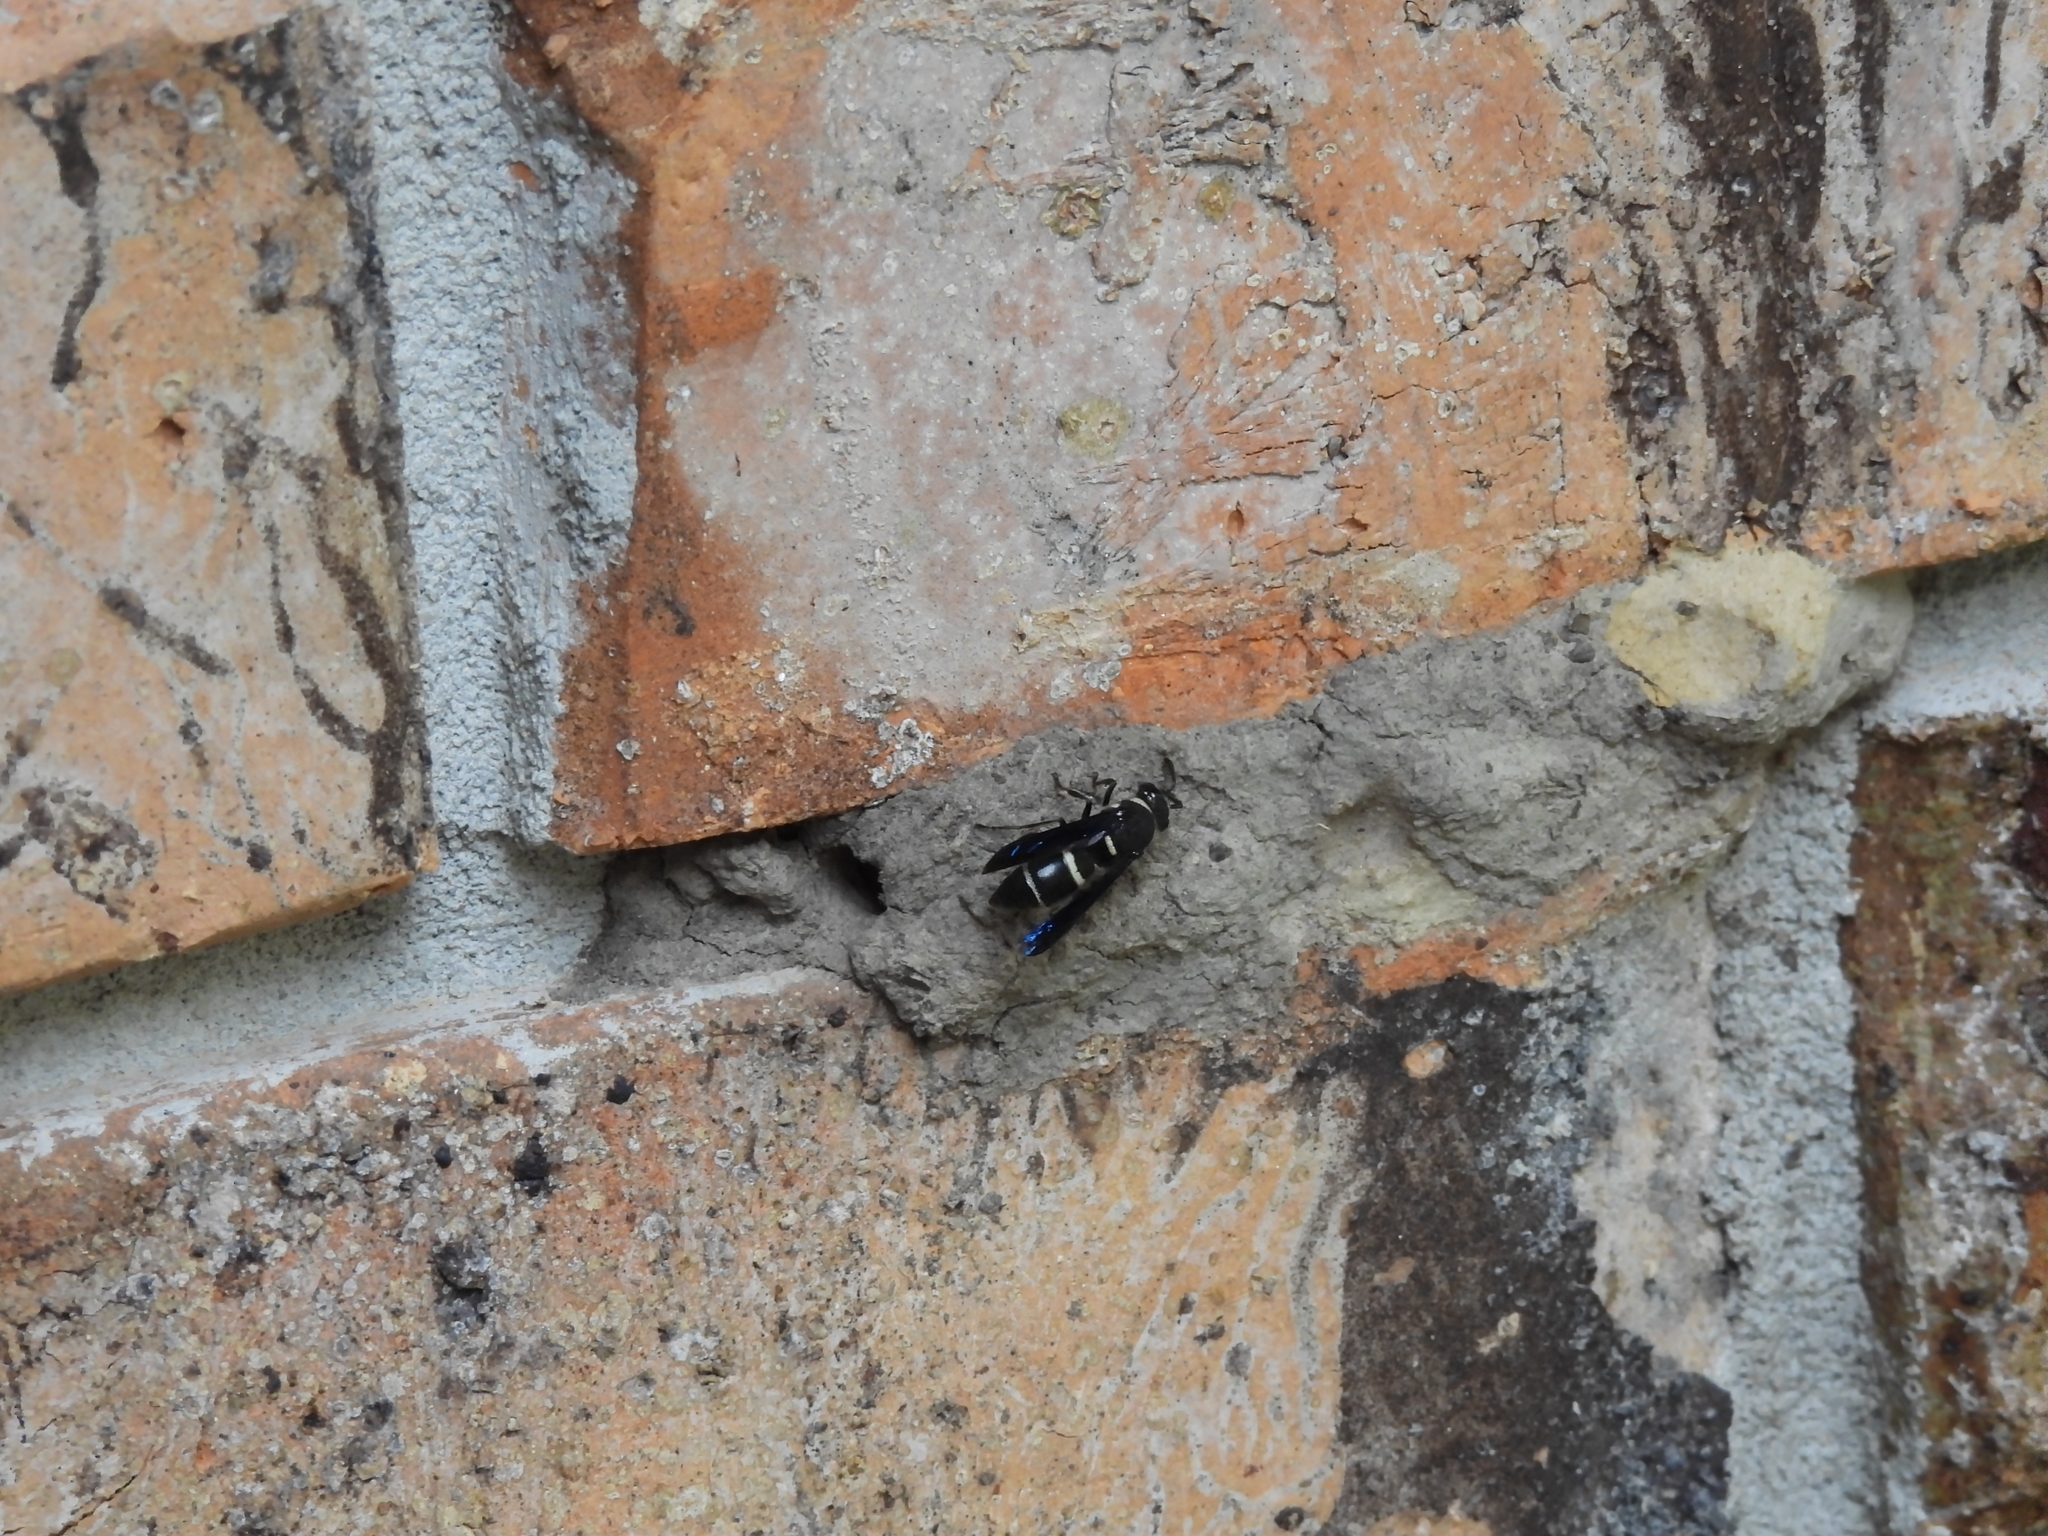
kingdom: Animalia
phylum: Arthropoda
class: Insecta
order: Hymenoptera
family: Eumenidae
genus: Euodynerus
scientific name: Euodynerus megaera
